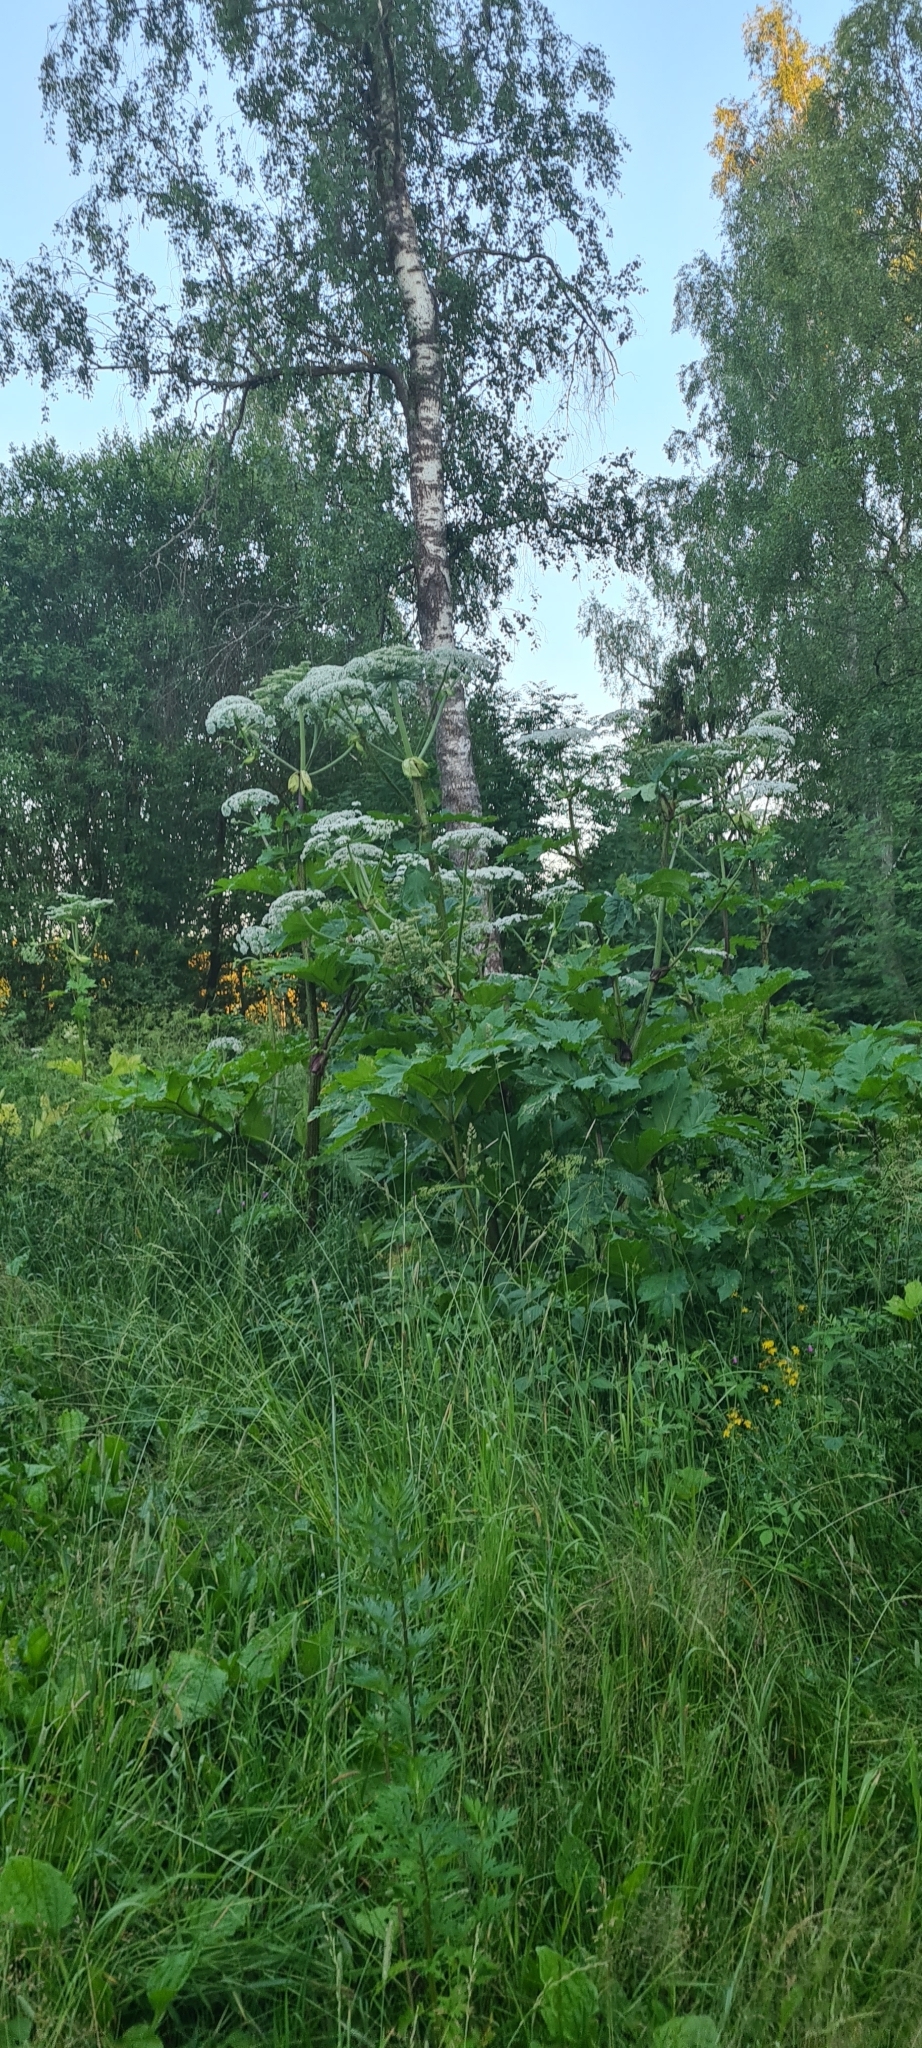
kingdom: Plantae
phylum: Tracheophyta
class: Magnoliopsida
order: Apiales
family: Apiaceae
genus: Heracleum
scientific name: Heracleum sosnowskyi
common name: Sosnowsky's hogweed
